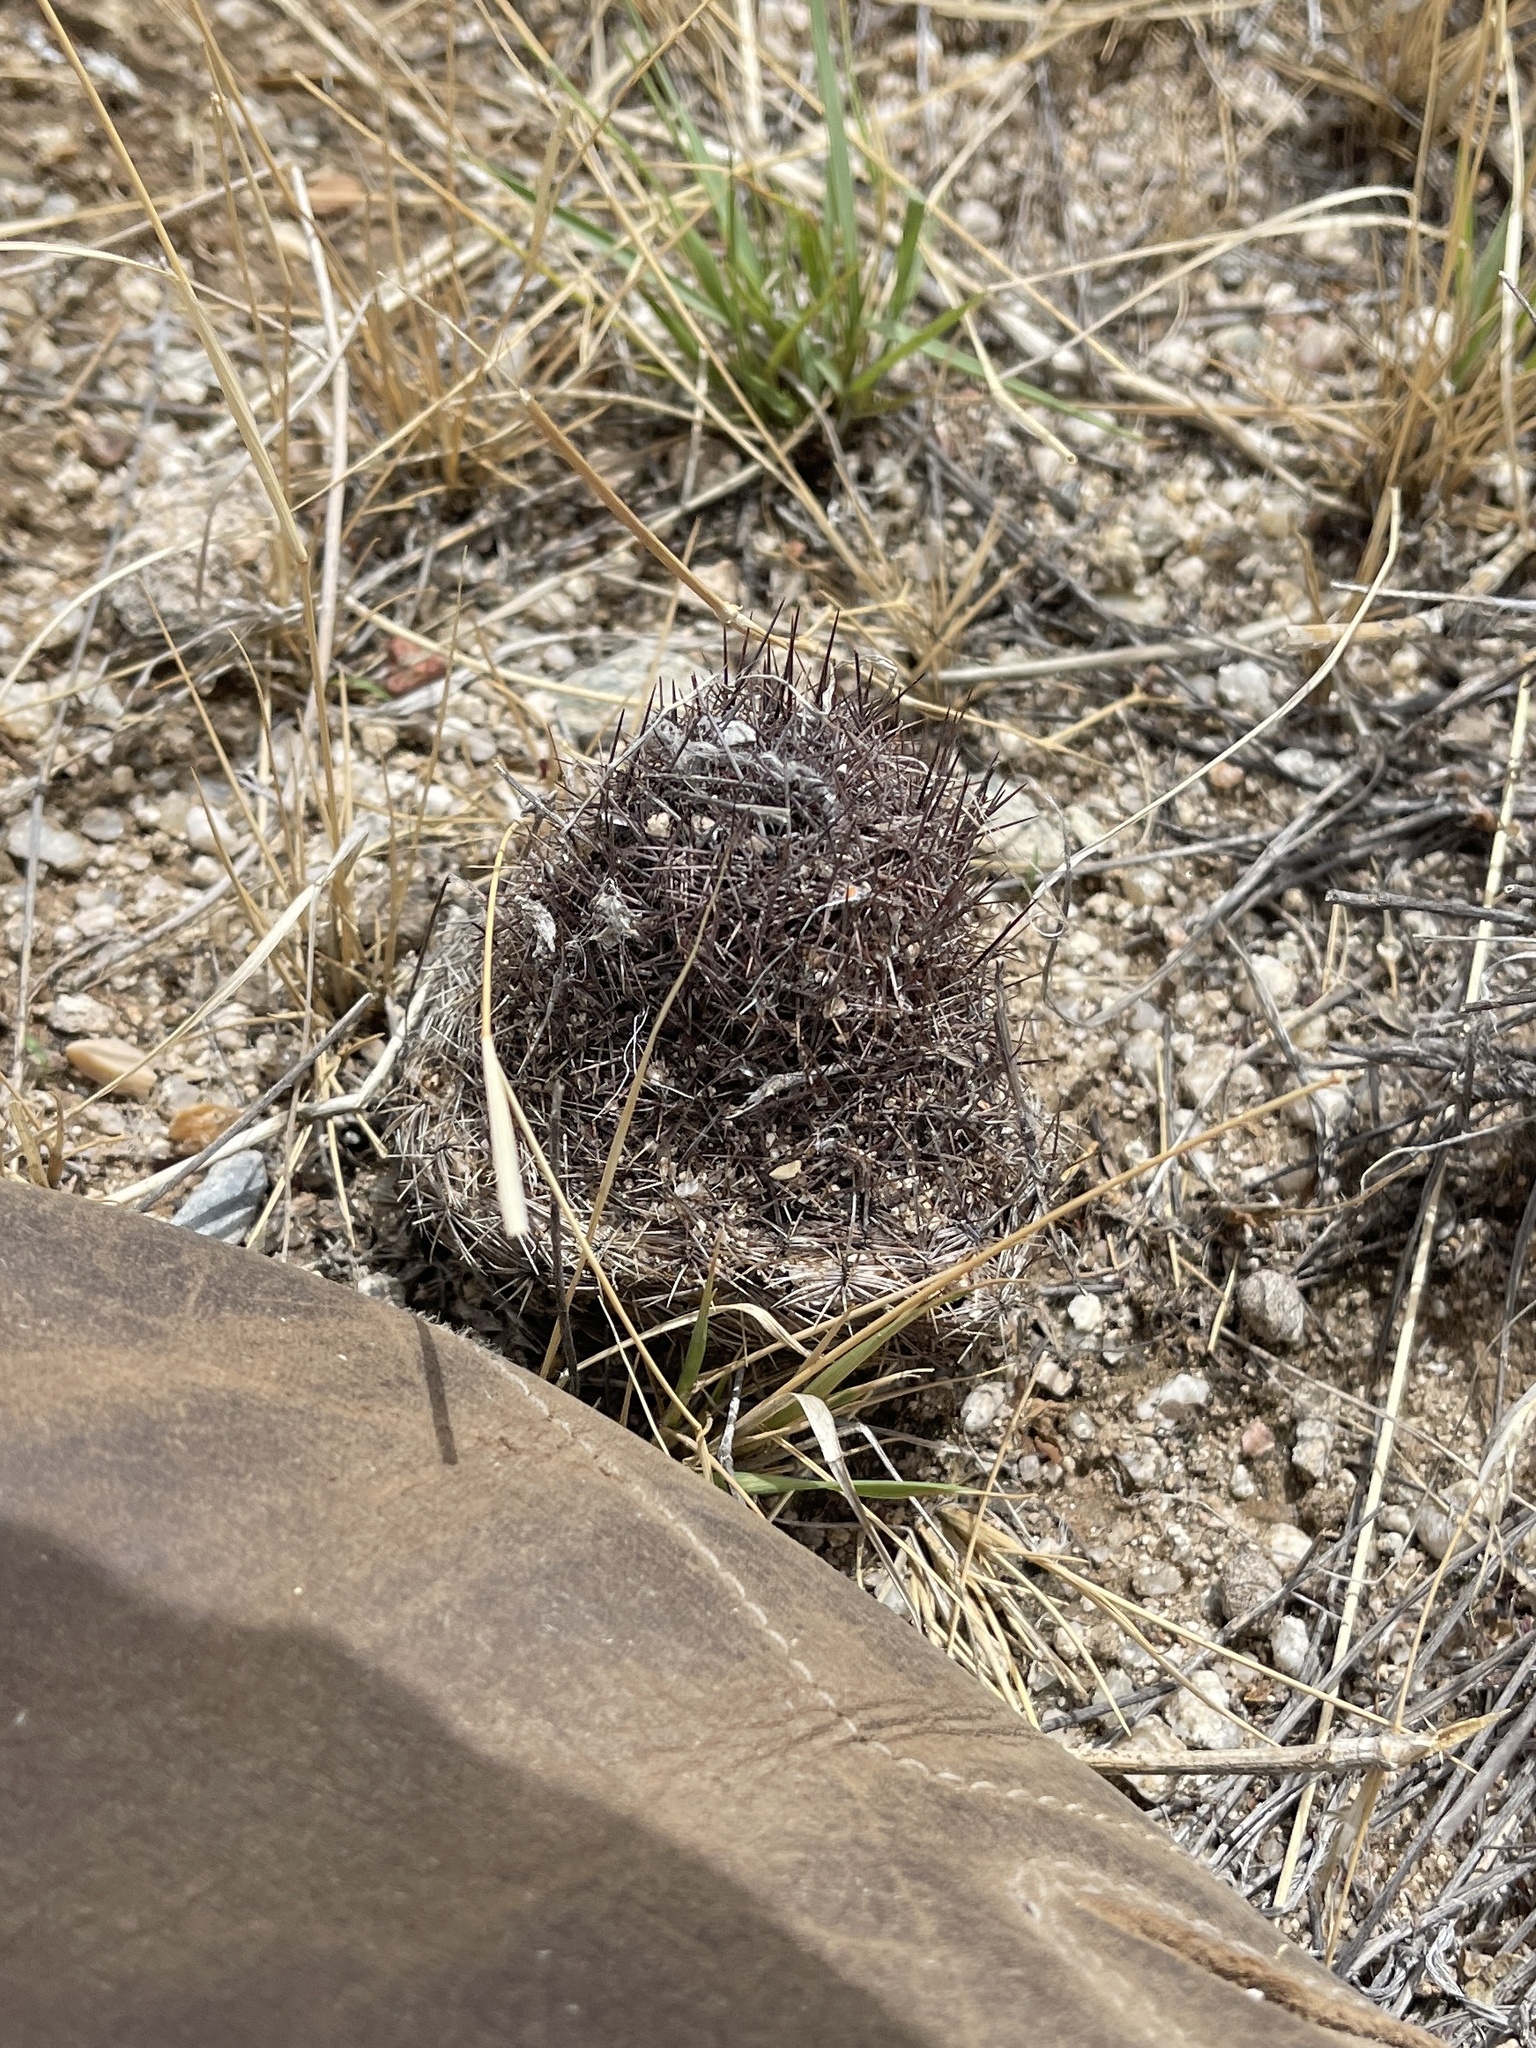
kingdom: Plantae
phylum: Tracheophyta
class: Magnoliopsida
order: Caryophyllales
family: Cactaceae
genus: Sclerocactus
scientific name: Sclerocactus johnsonii
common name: Eight-spine fishhook cactus
